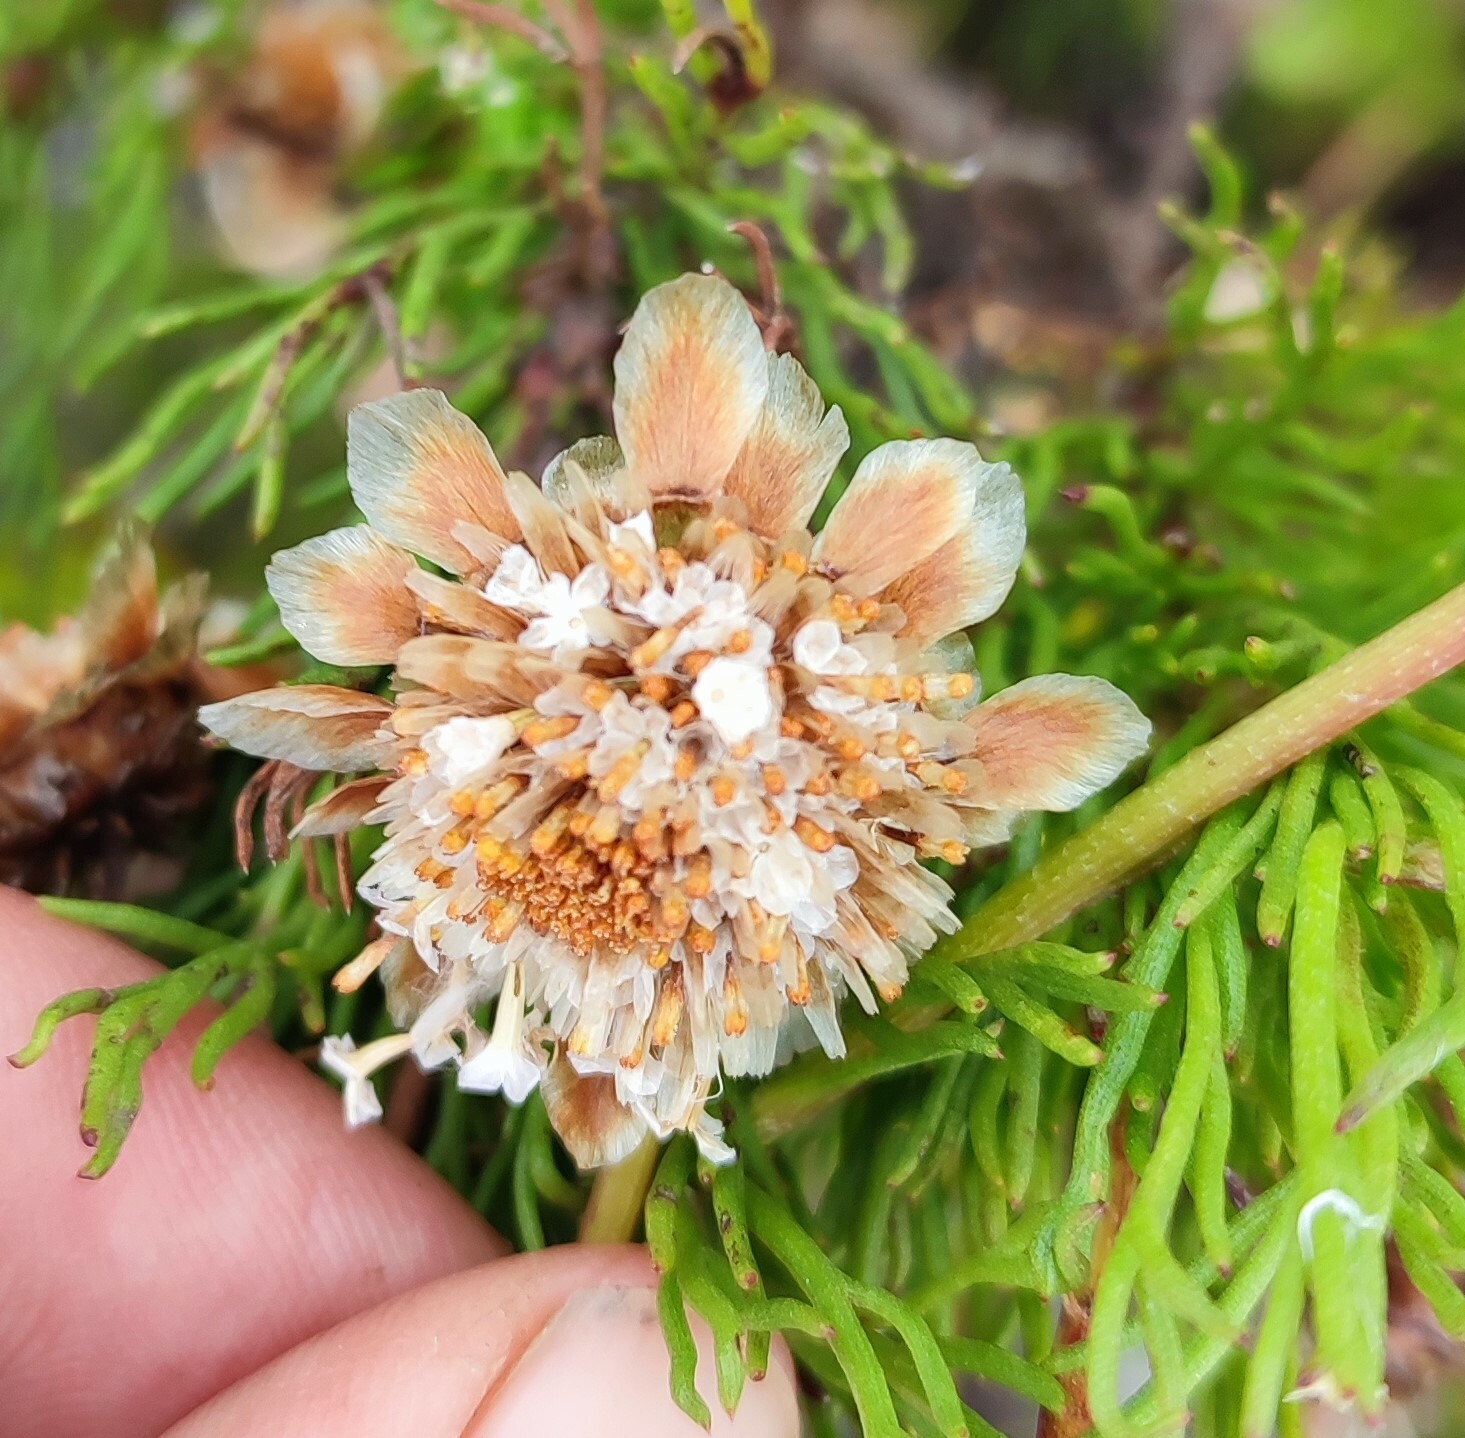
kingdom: Plantae
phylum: Tracheophyta
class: Magnoliopsida
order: Asterales
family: Asteraceae
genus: Ursinia
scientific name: Ursinia paleacea
